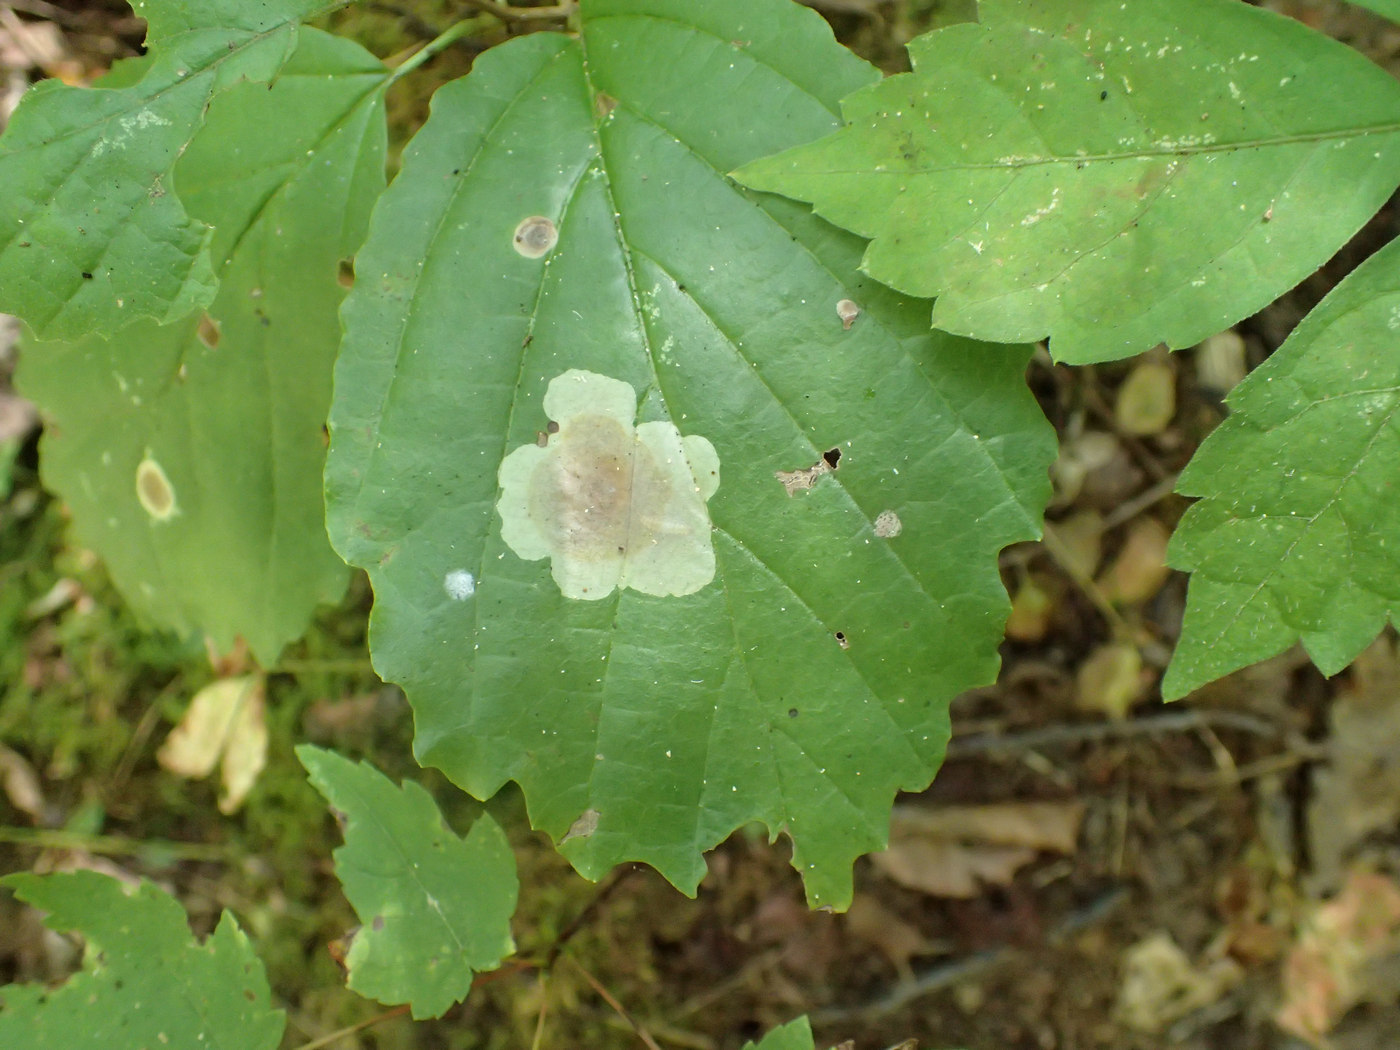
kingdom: Animalia
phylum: Arthropoda
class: Insecta
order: Lepidoptera
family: Gracillariidae
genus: Cameraria
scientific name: Cameraria hamameliella
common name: Witchhazel leafminer
